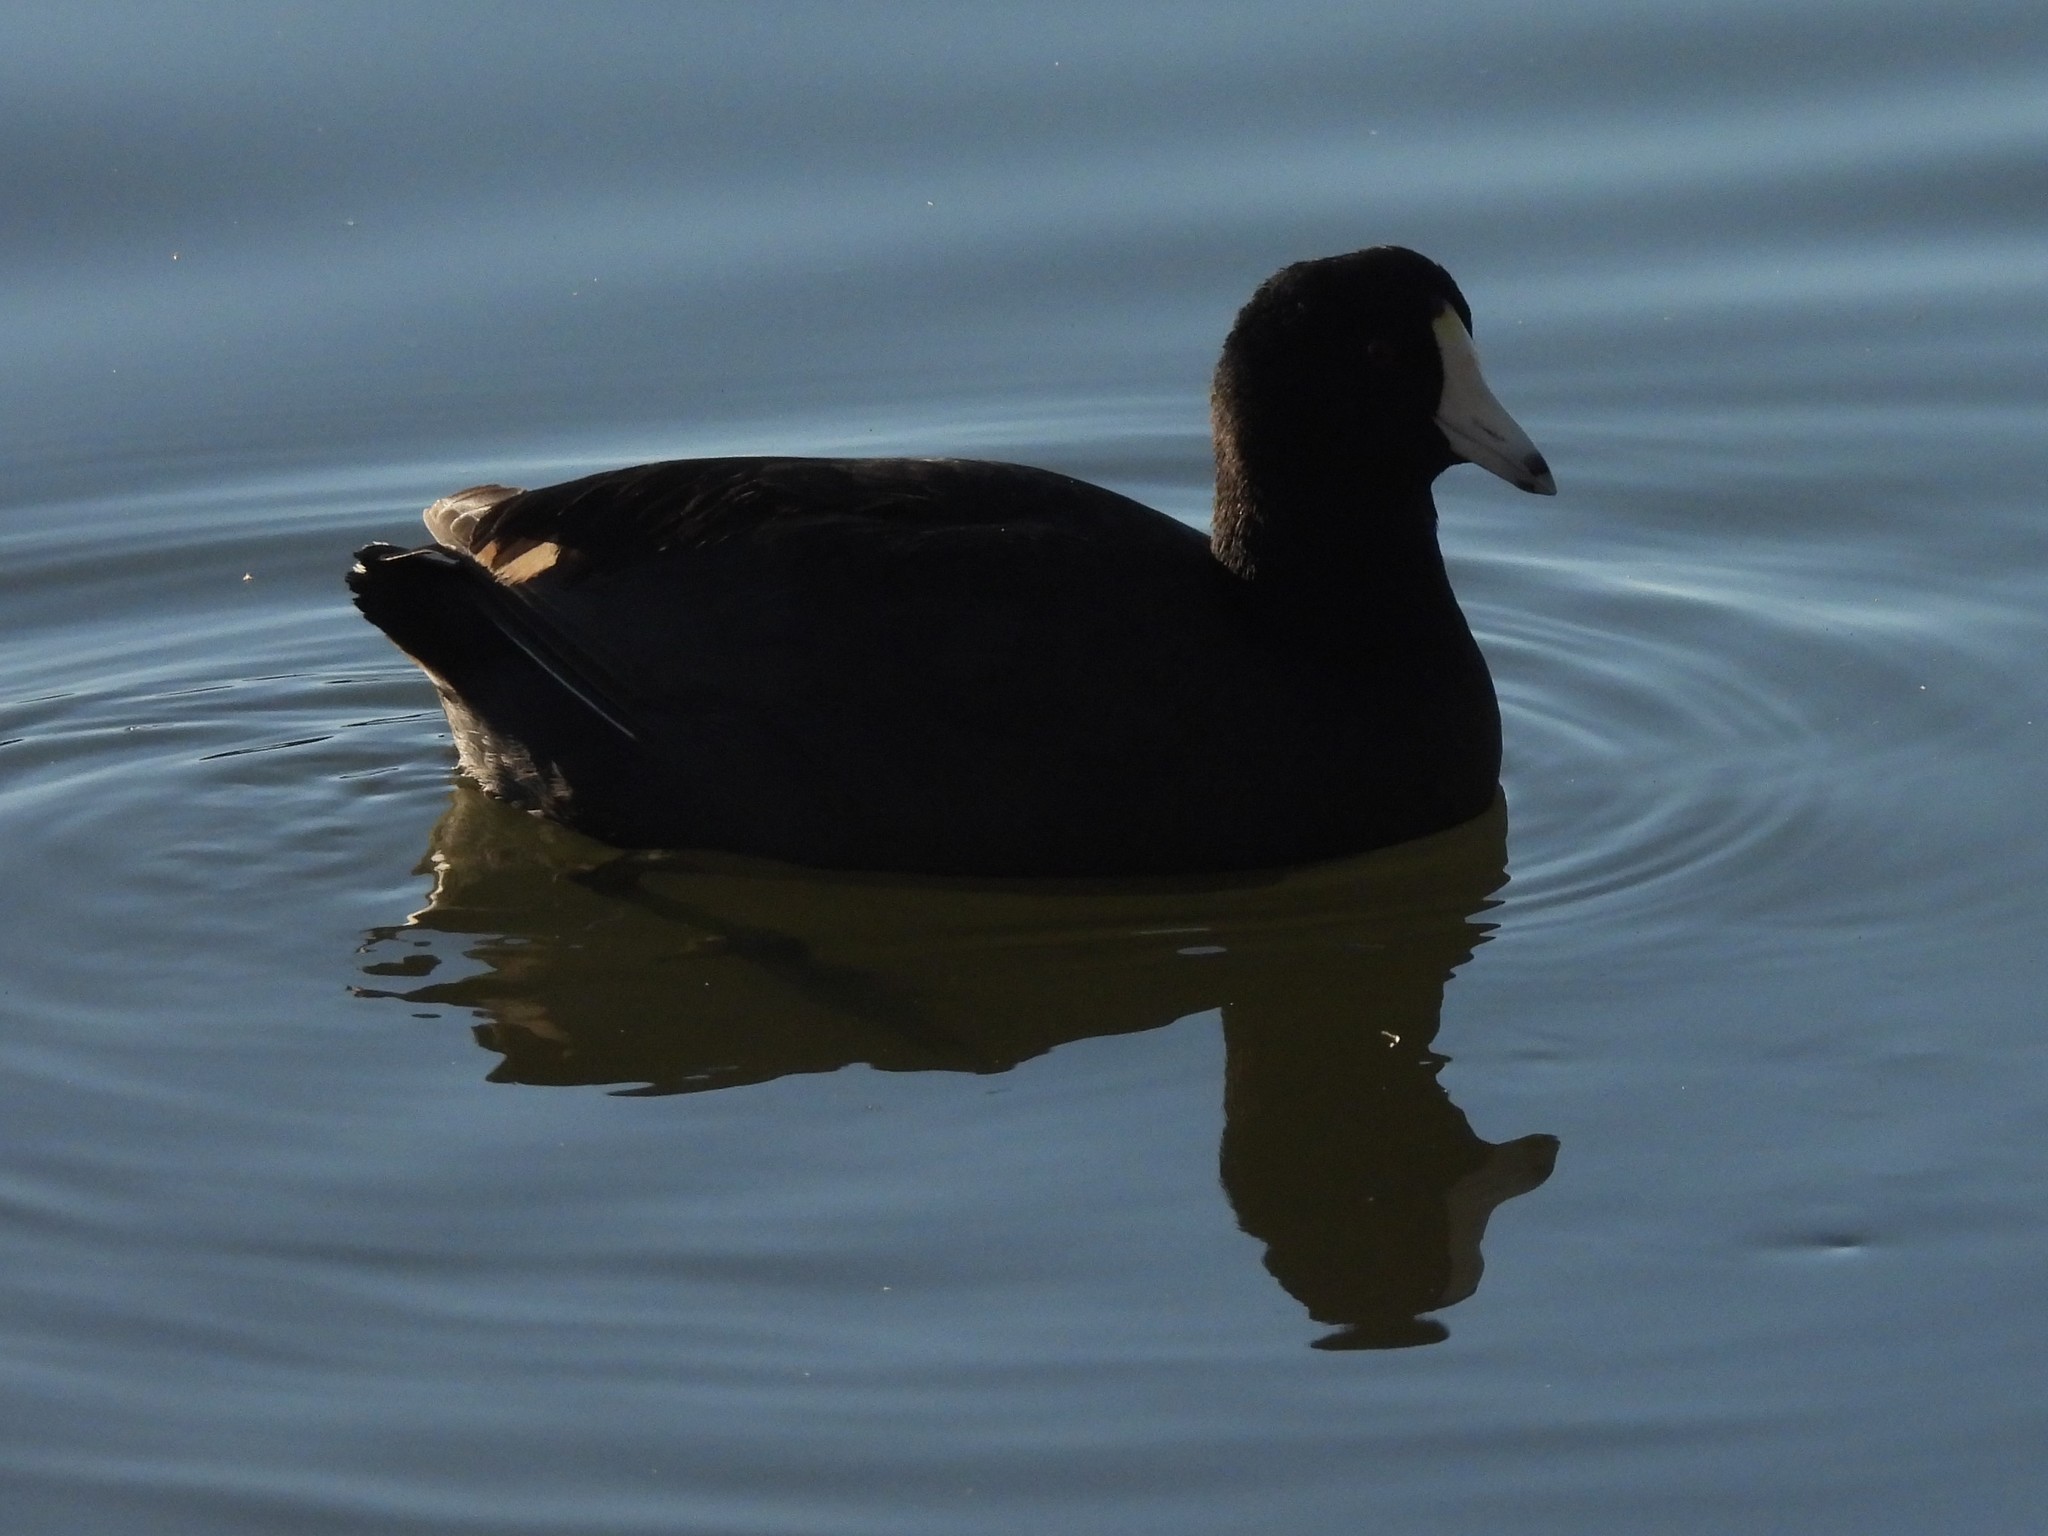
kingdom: Animalia
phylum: Chordata
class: Aves
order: Gruiformes
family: Rallidae
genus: Fulica
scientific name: Fulica americana
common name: American coot
